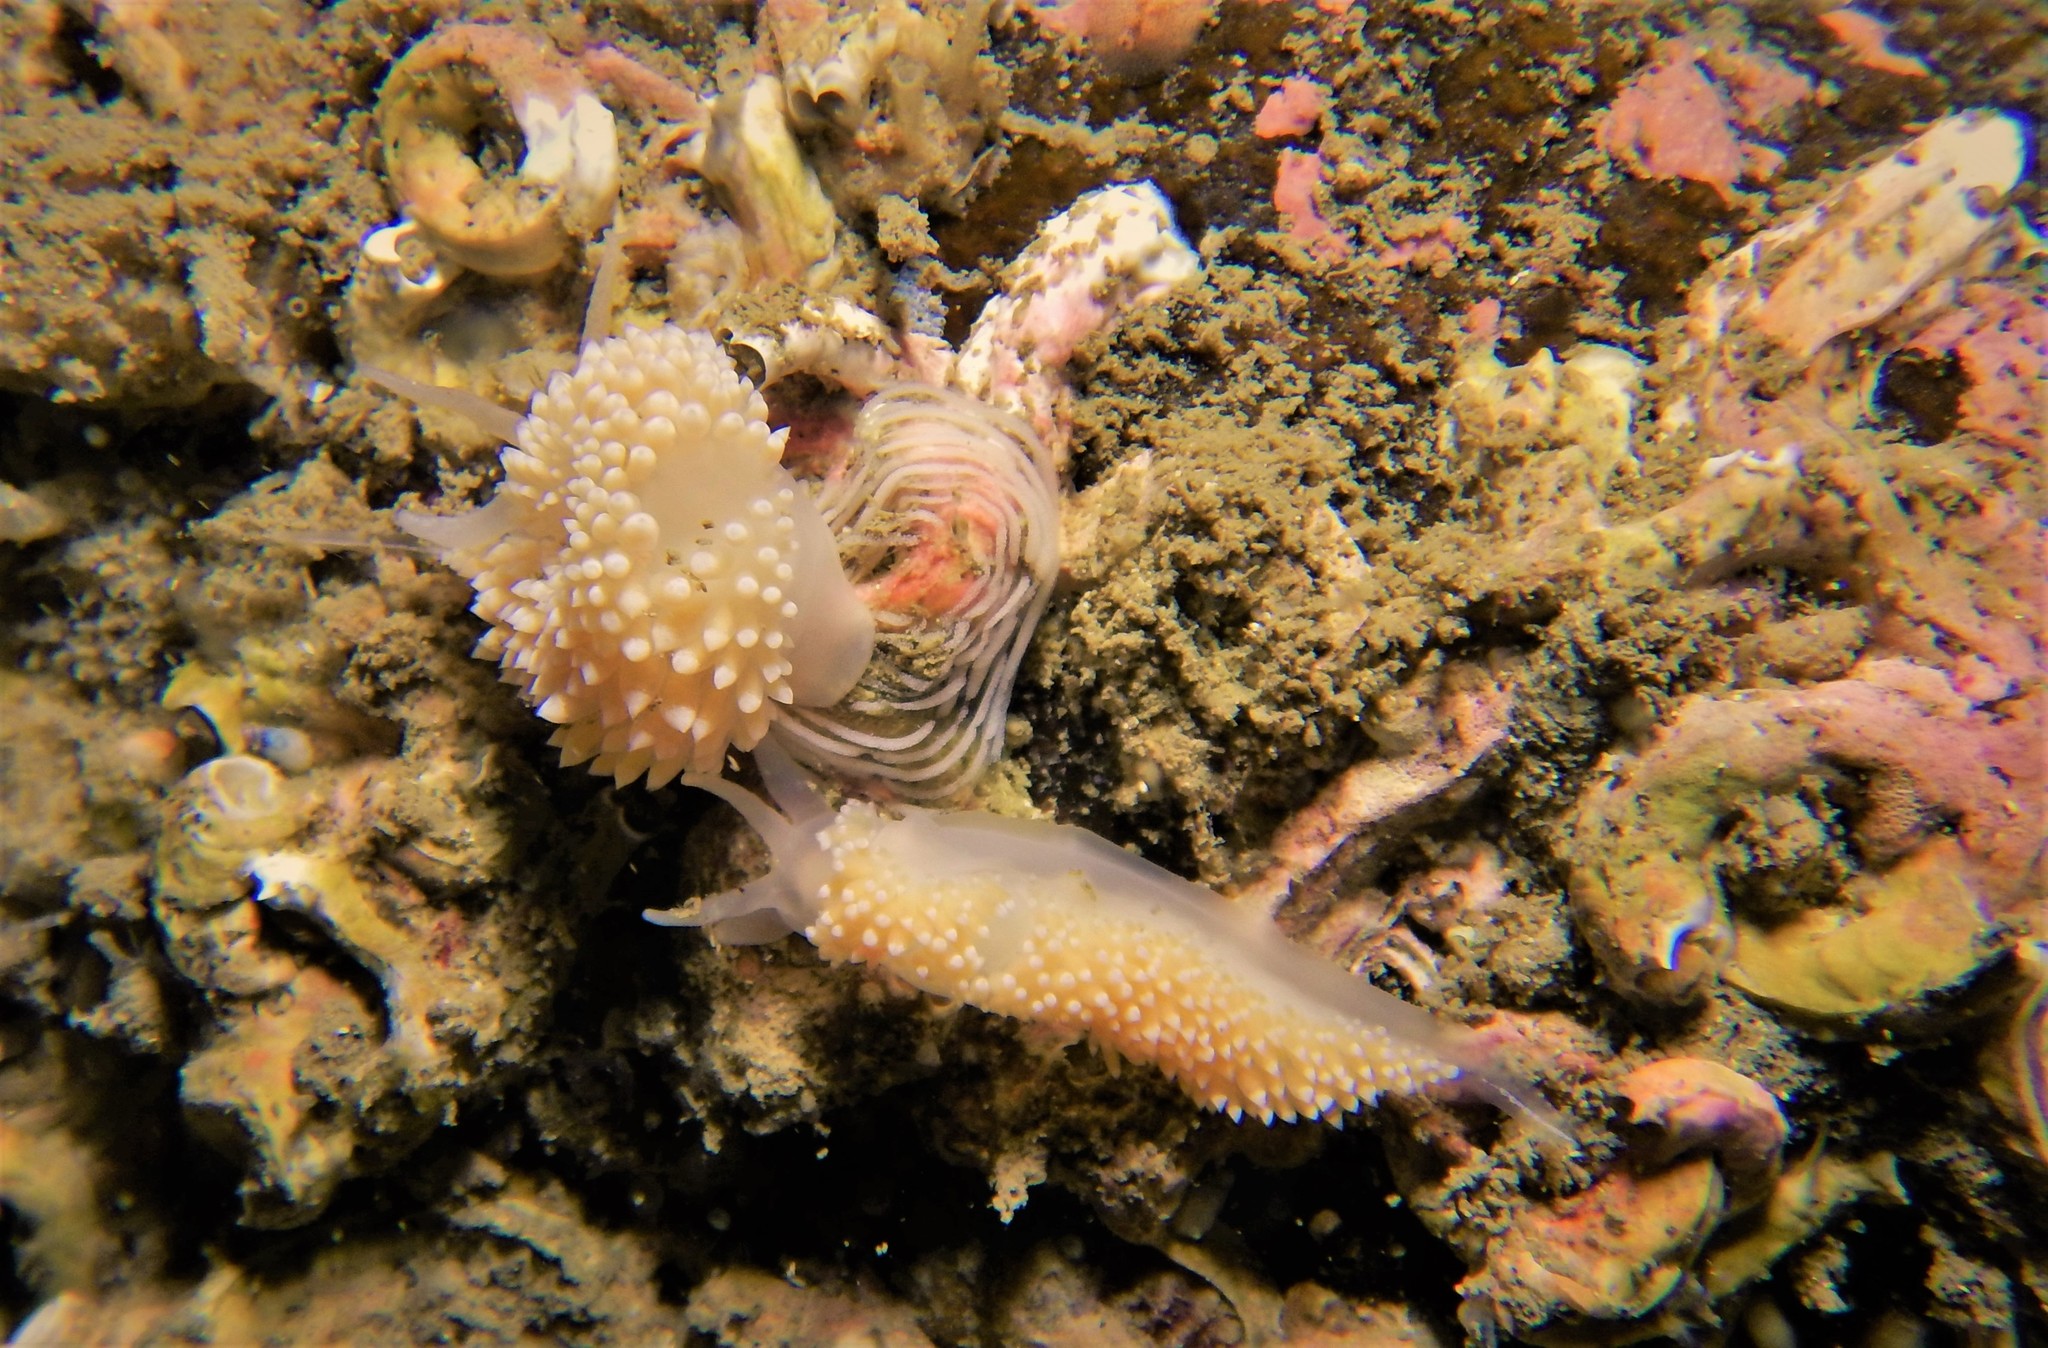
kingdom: Animalia
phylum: Mollusca
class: Gastropoda
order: Nudibranchia
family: Coryphellidae
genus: Coryphella
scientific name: Coryphella verrucosa
